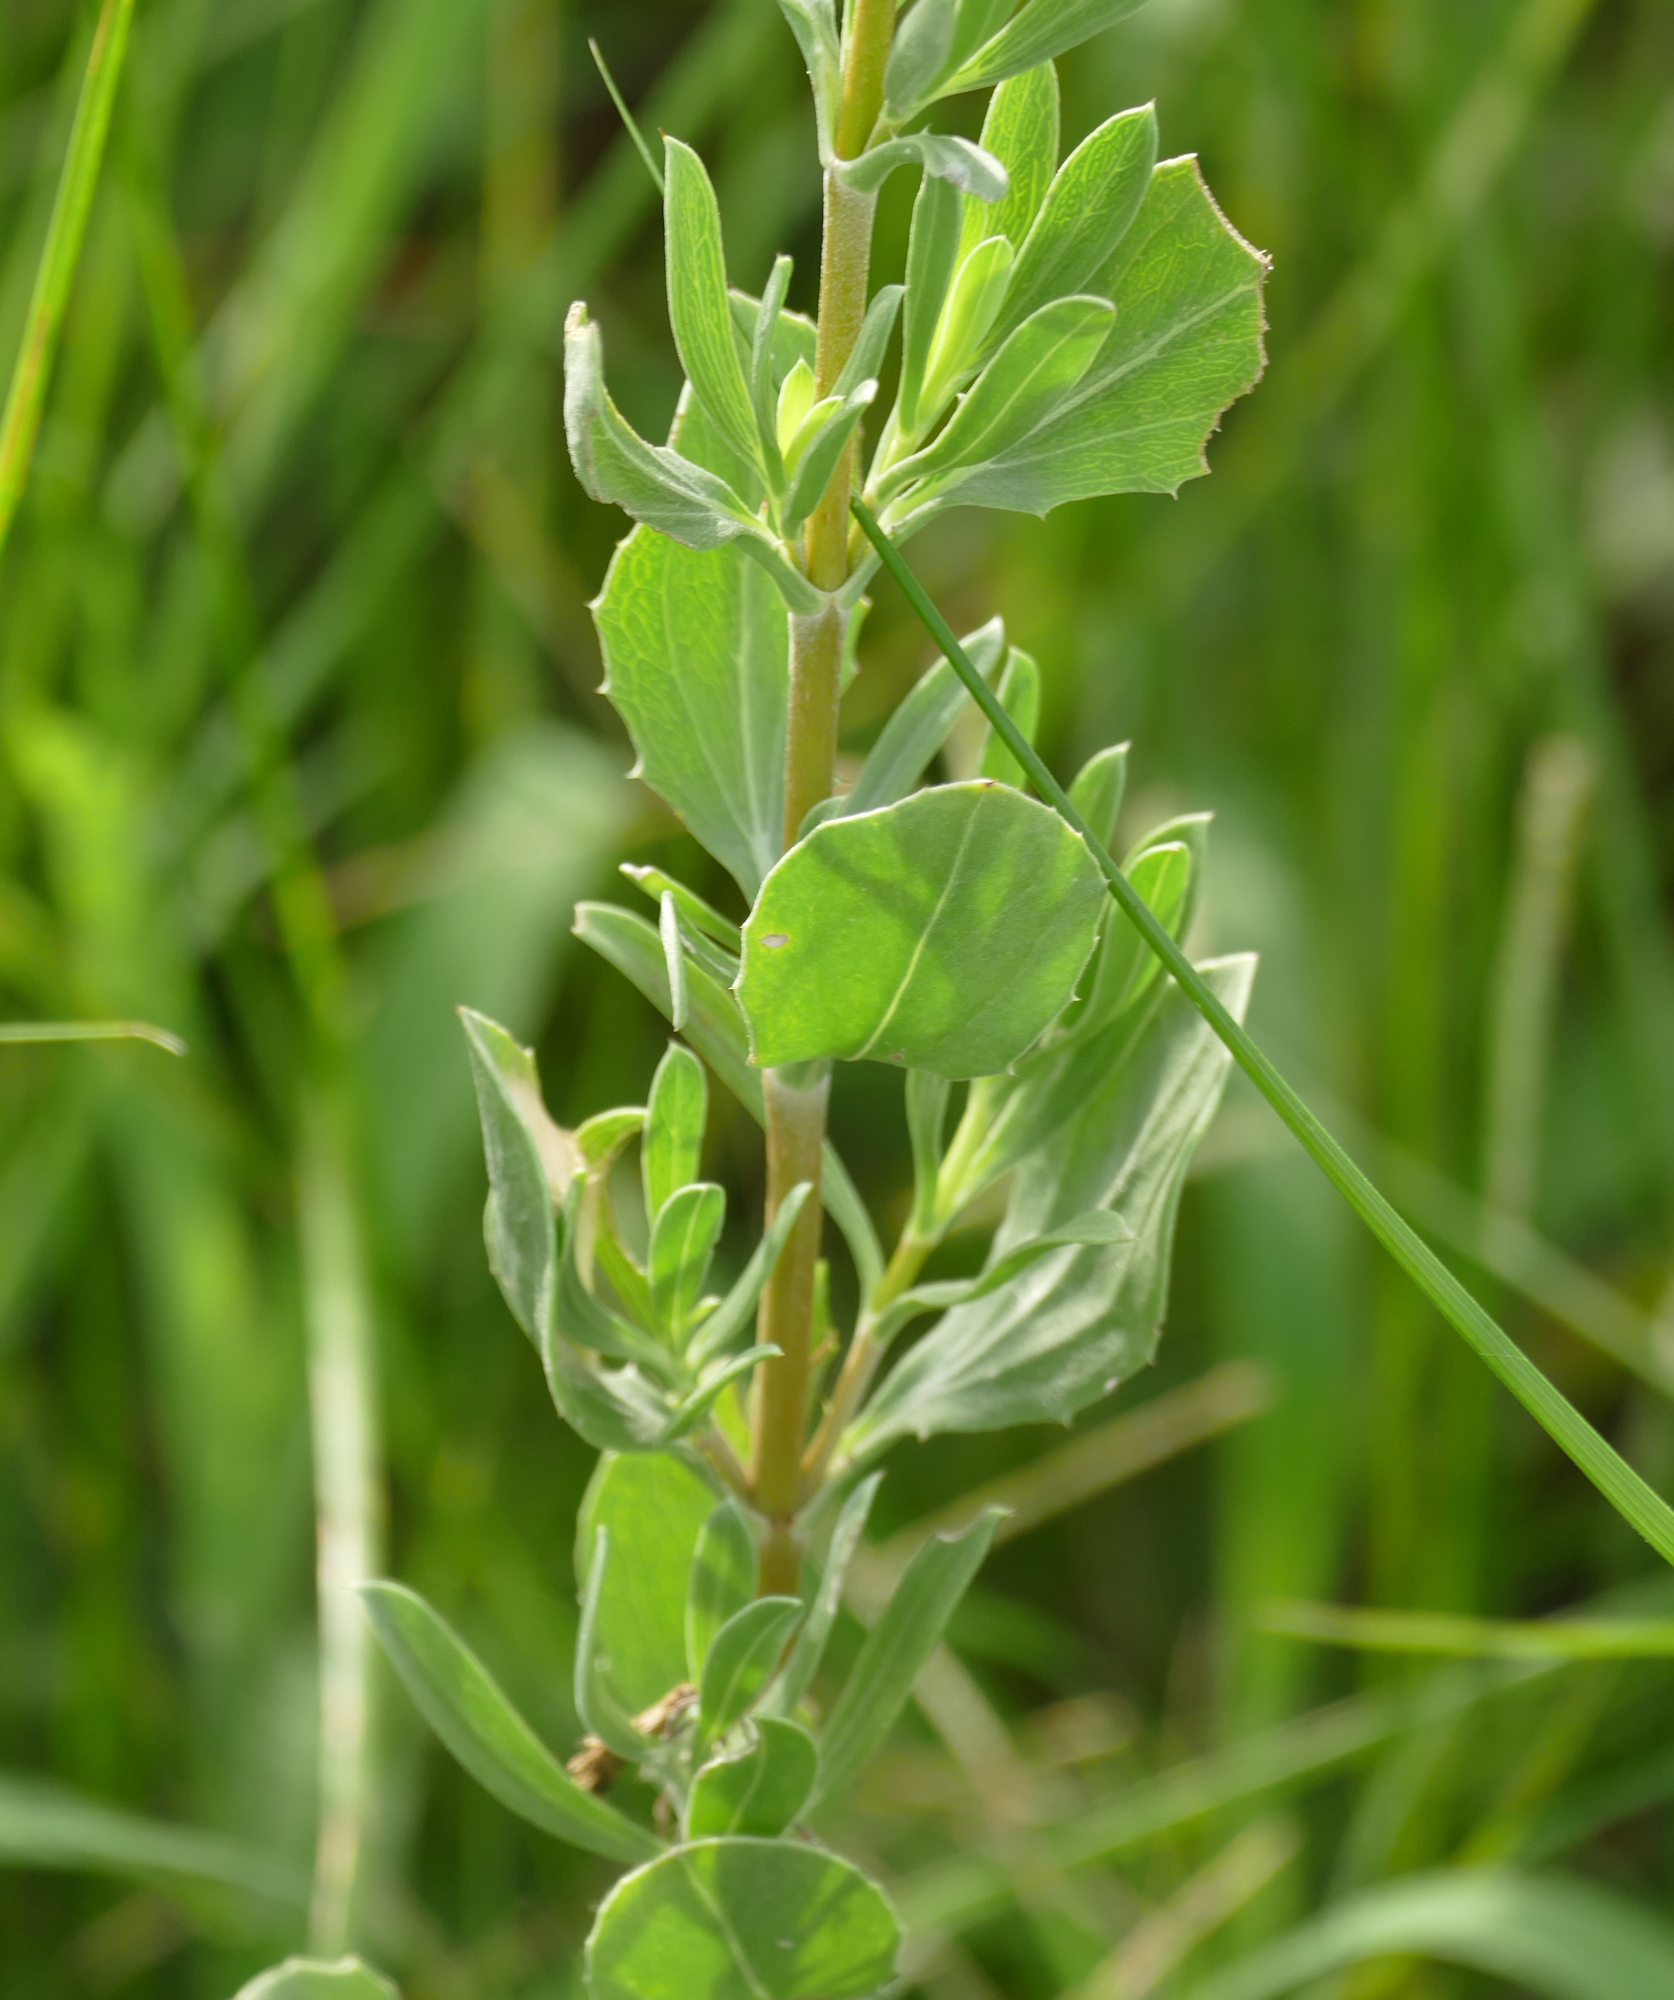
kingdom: Plantae
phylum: Tracheophyta
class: Magnoliopsida
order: Asterales
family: Asteraceae
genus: Borrichia
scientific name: Borrichia frutescens
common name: Sea oxeye
